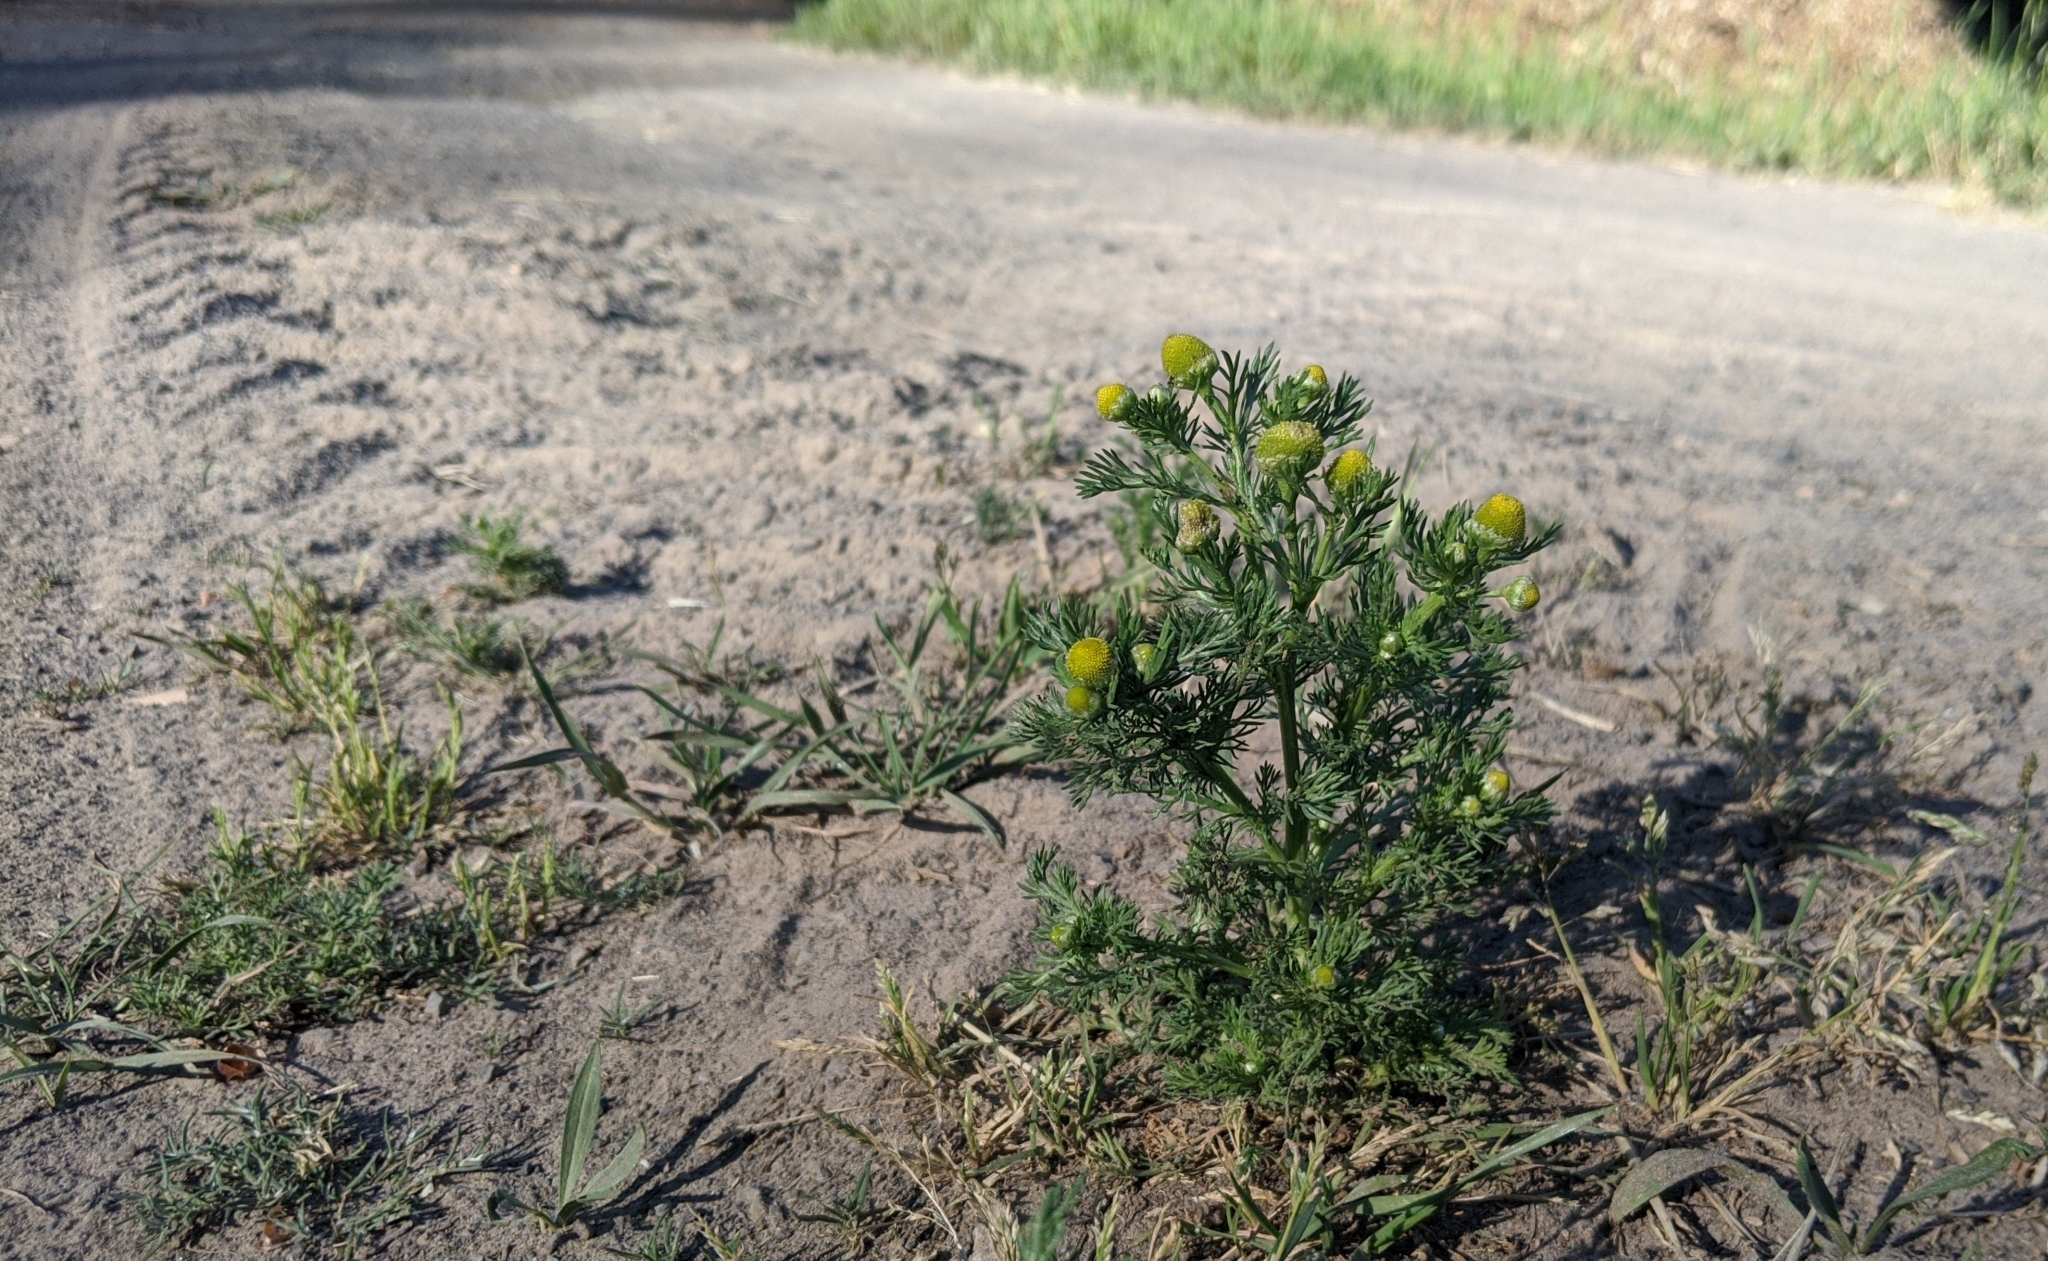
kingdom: Plantae
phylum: Tracheophyta
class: Magnoliopsida
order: Asterales
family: Asteraceae
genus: Matricaria
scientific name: Matricaria discoidea
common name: Disc mayweed
